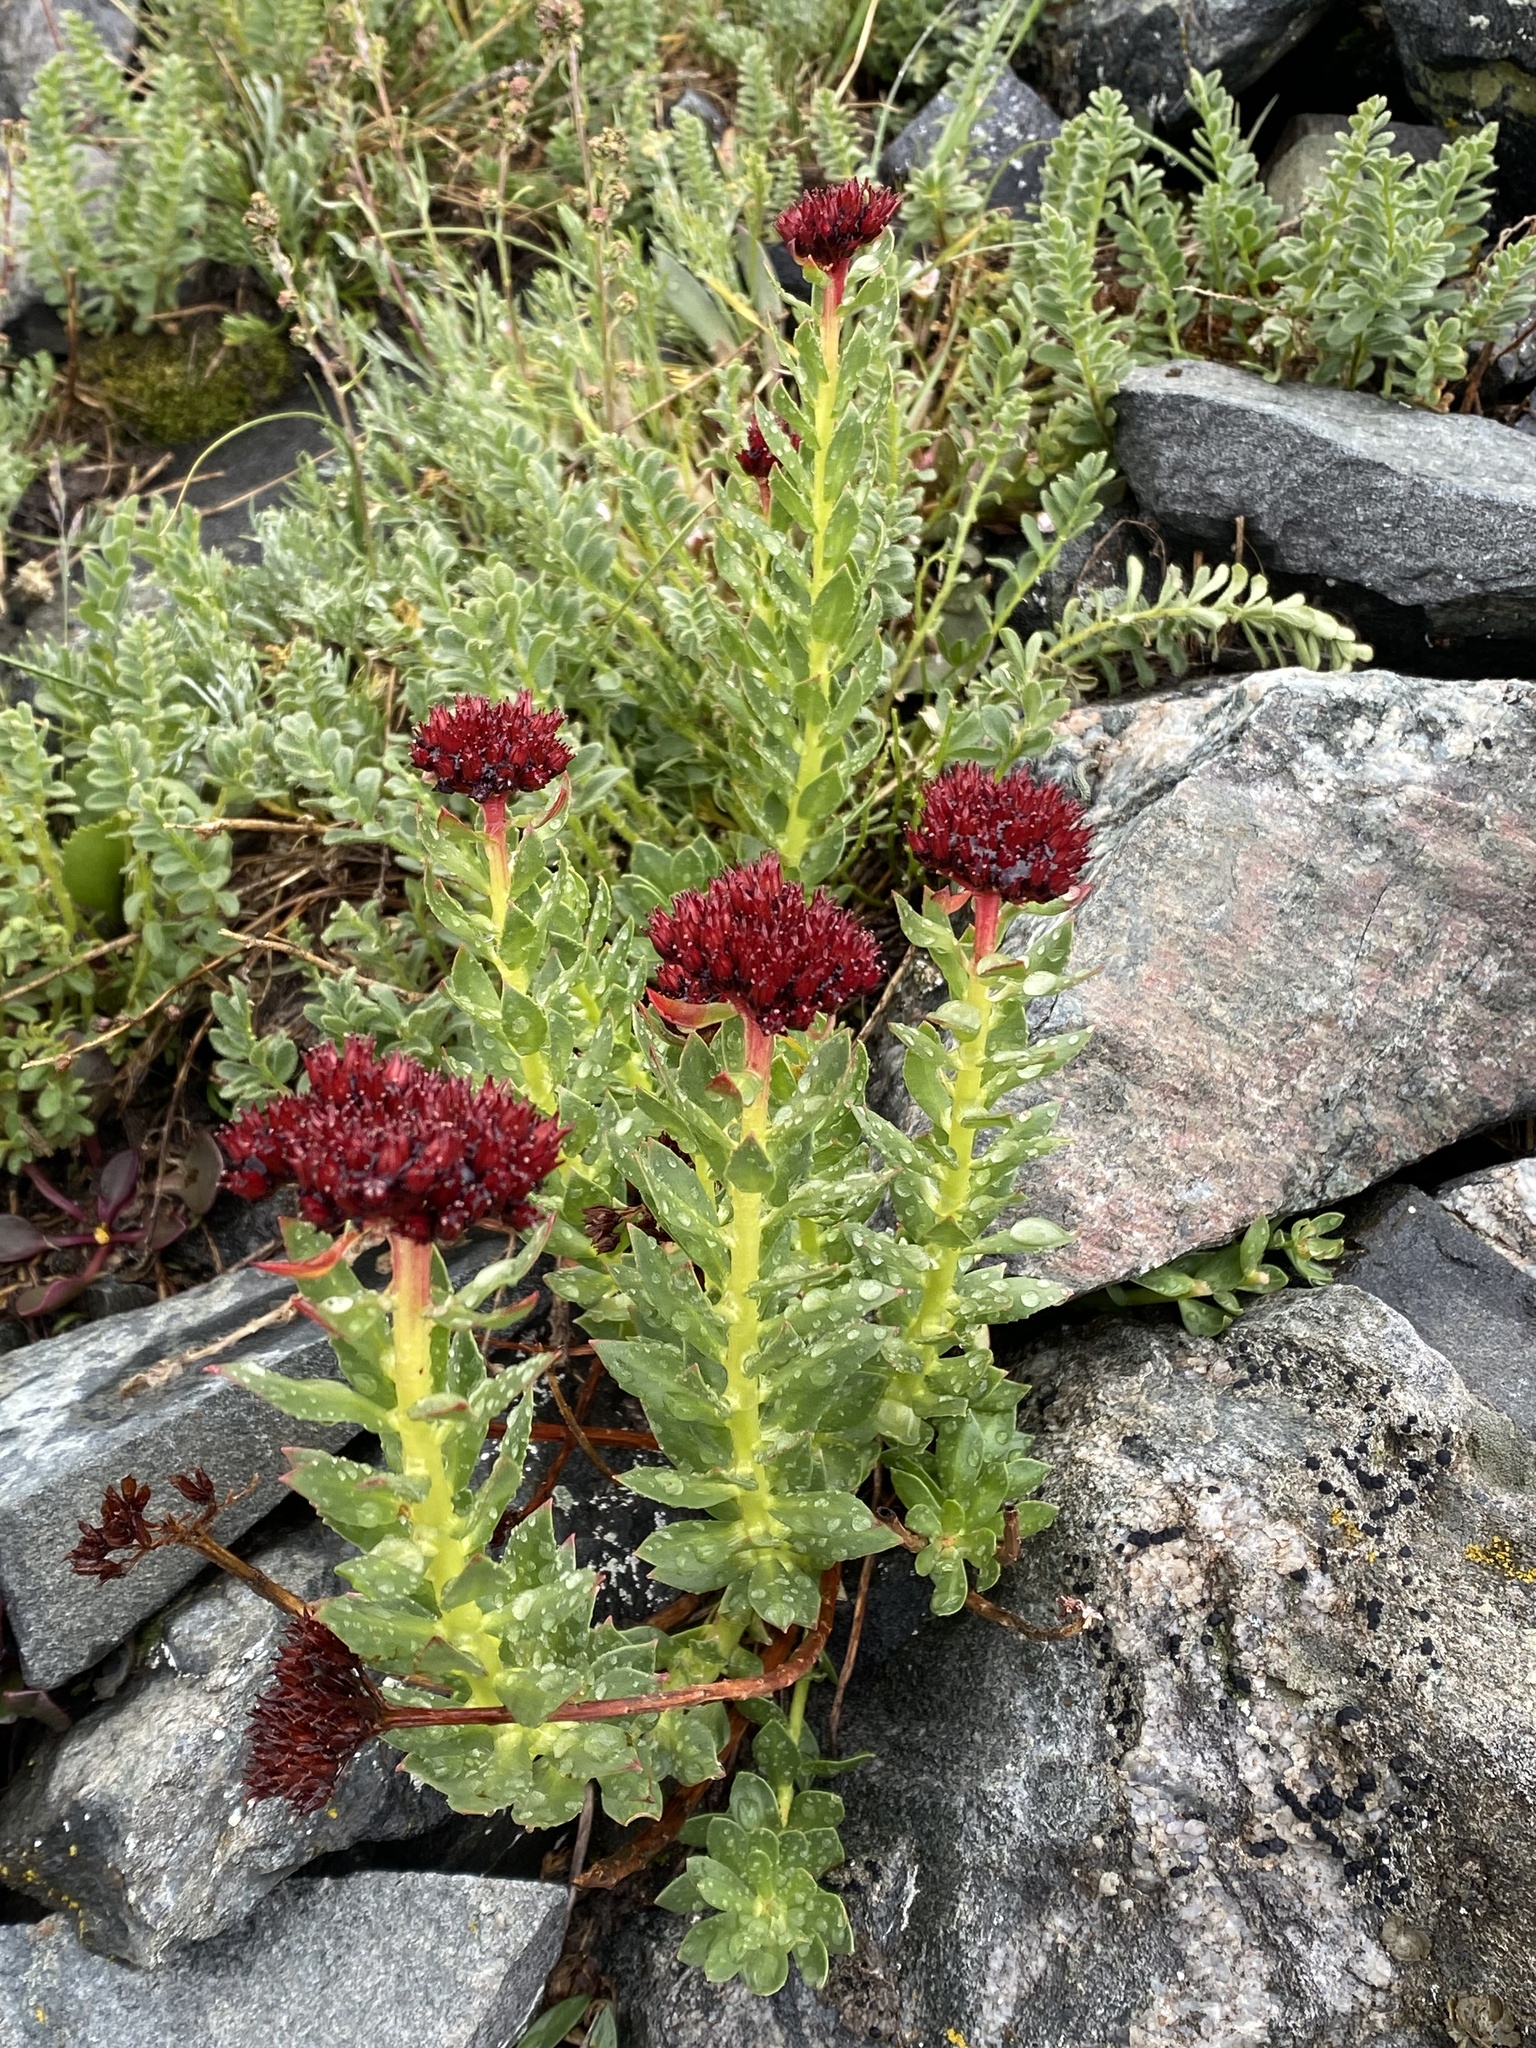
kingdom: Plantae
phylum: Tracheophyta
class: Magnoliopsida
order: Saxifragales
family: Crassulaceae
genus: Rhodiola
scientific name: Rhodiola integrifolia
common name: Western roseroot
